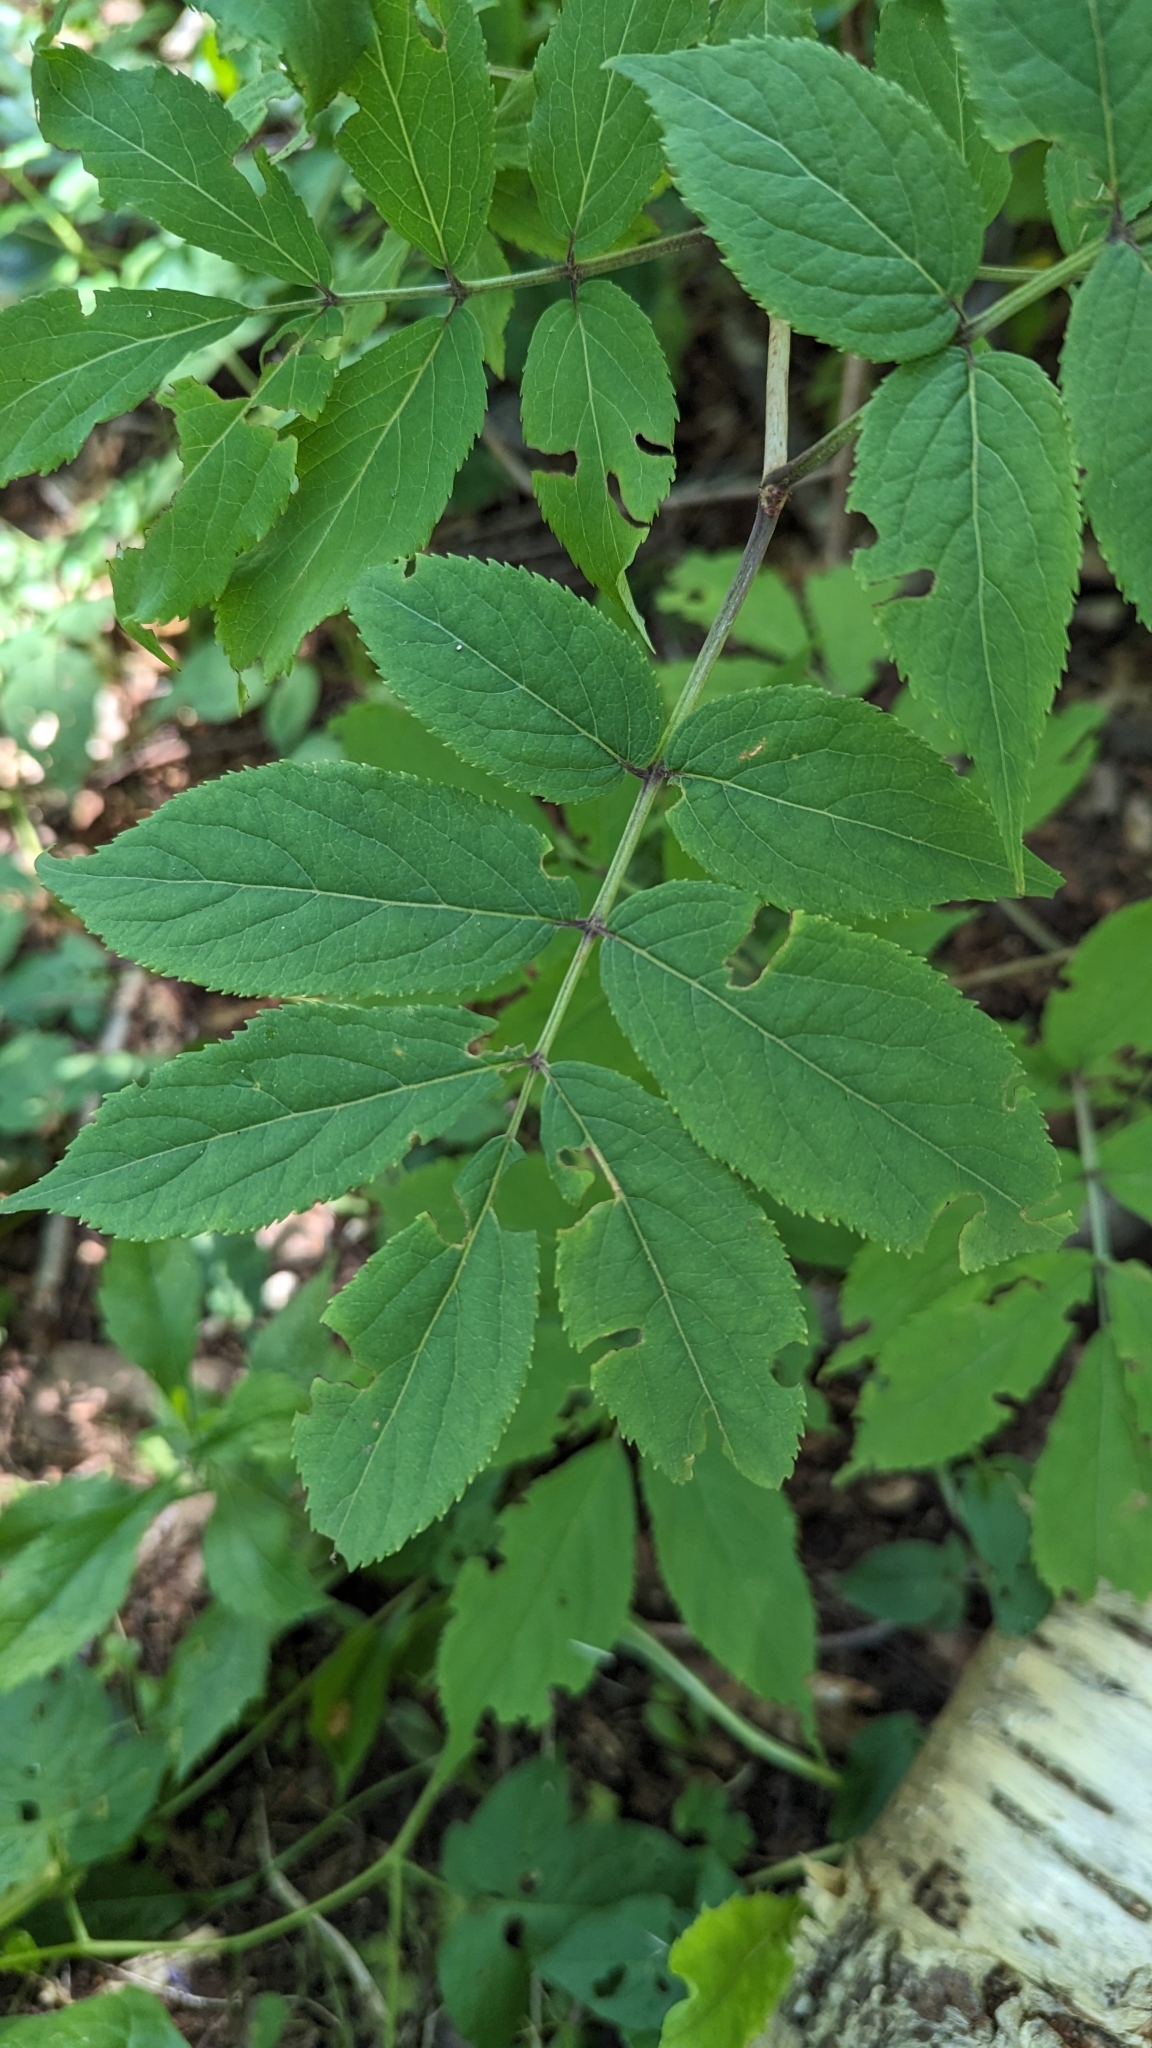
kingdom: Plantae
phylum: Tracheophyta
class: Magnoliopsida
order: Dipsacales
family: Viburnaceae
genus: Sambucus
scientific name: Sambucus racemosa
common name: Red-berried elder
